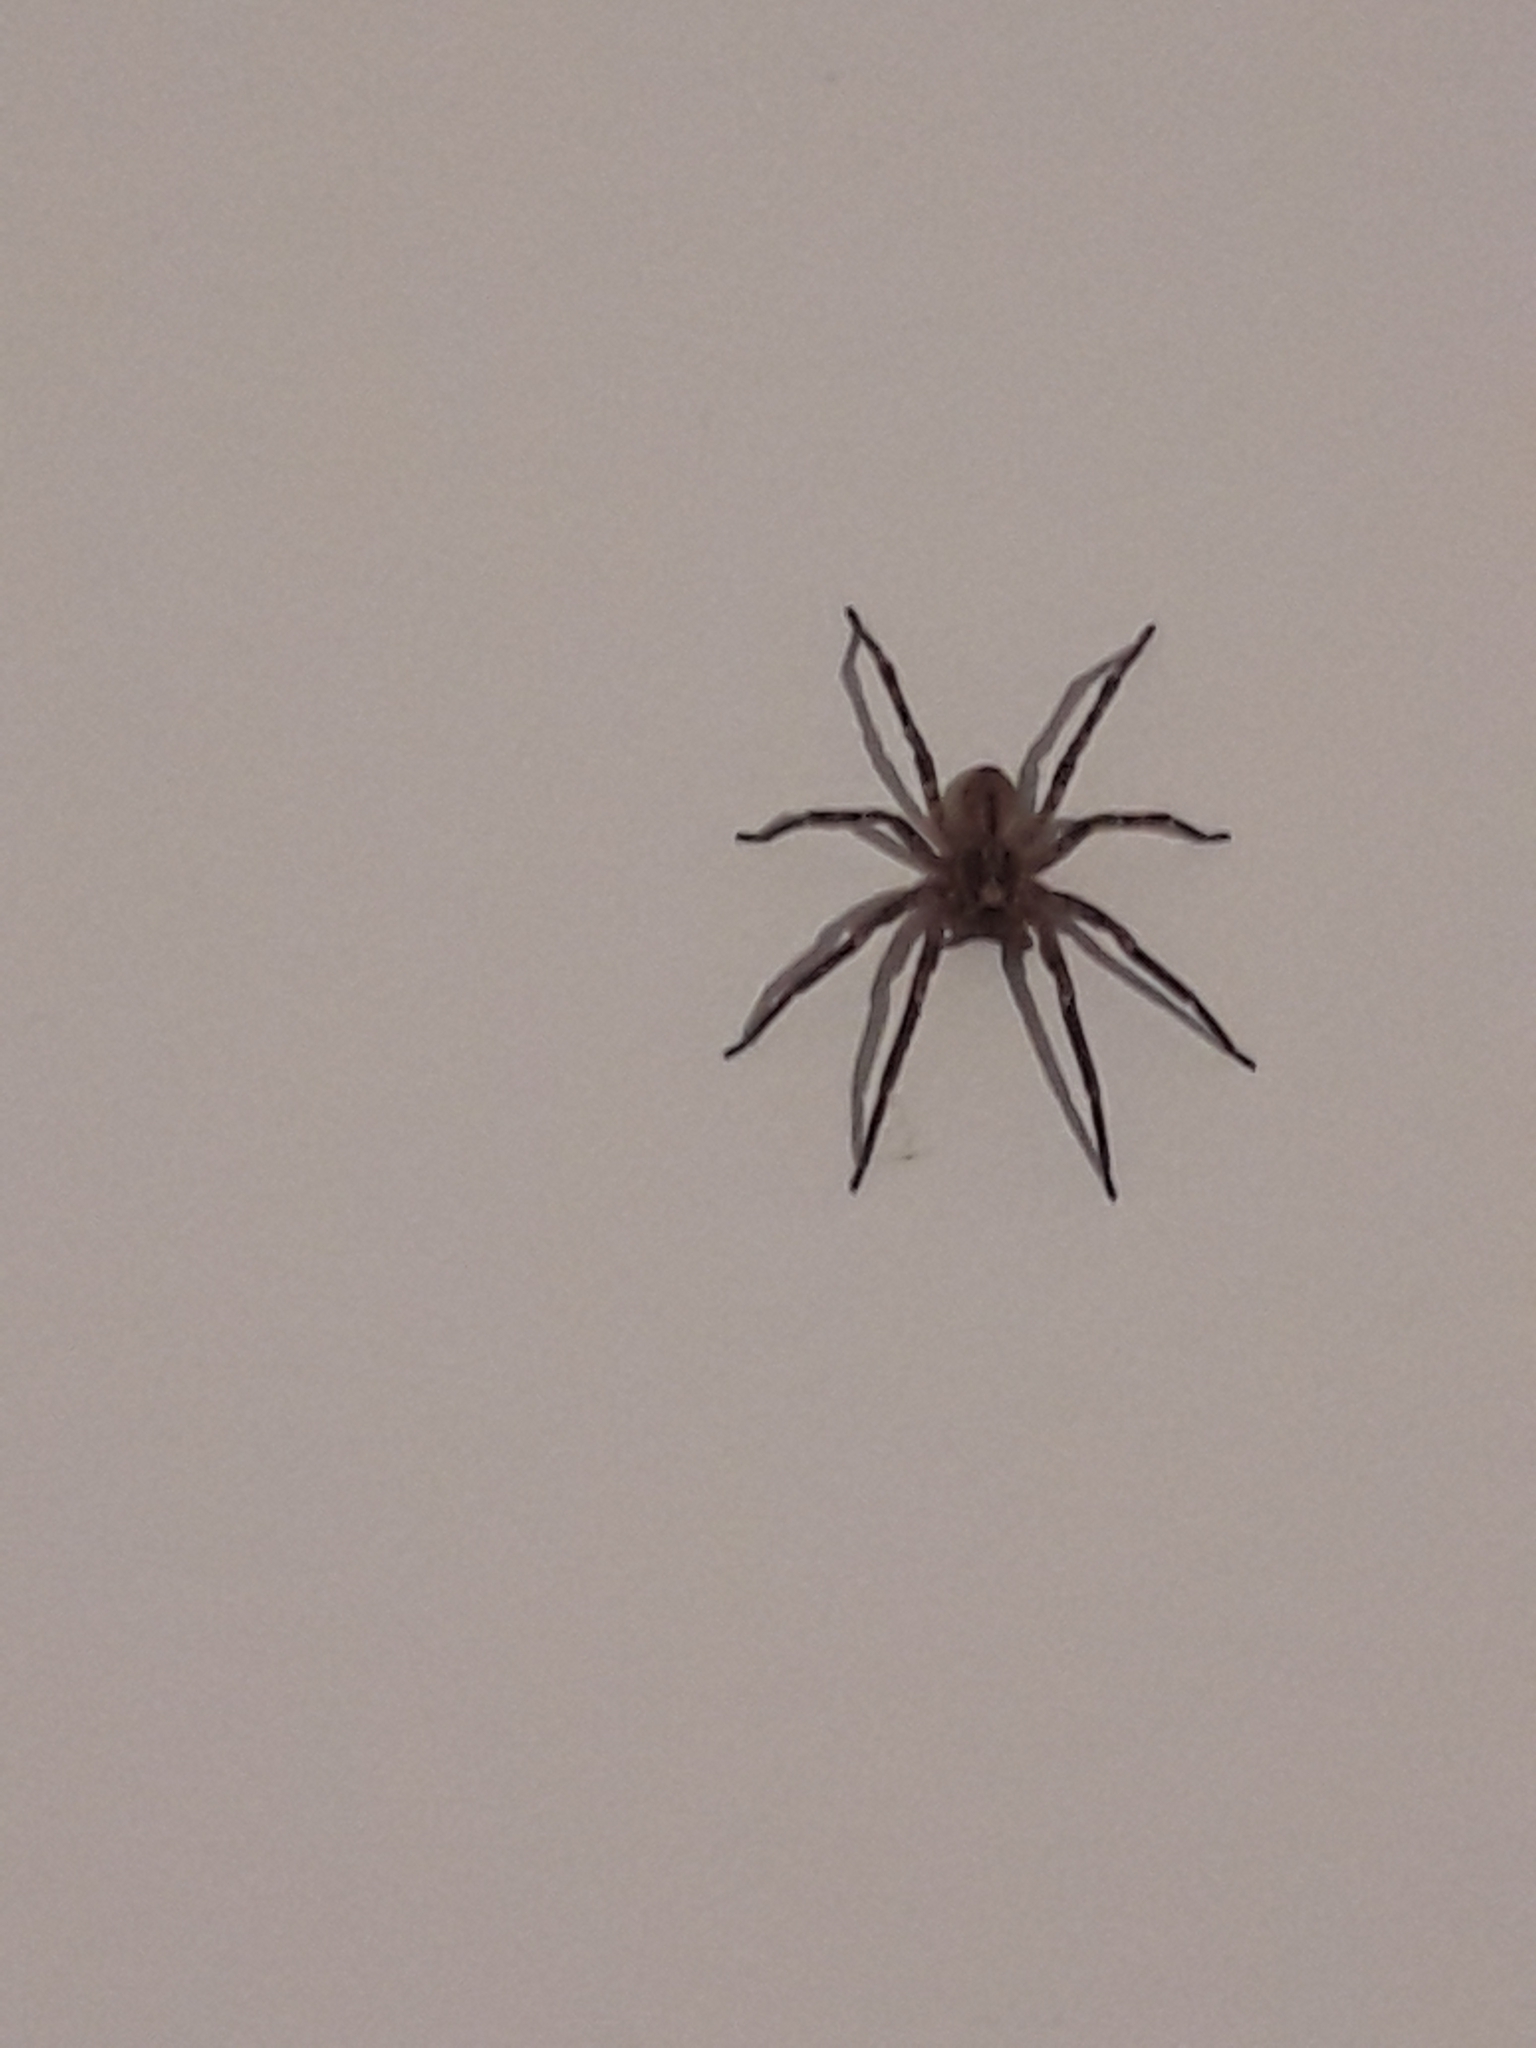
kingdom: Animalia
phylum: Arthropoda
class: Arachnida
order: Araneae
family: Zoropsidae
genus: Zoropsis
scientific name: Zoropsis spinimana
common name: Zoropsid spider
